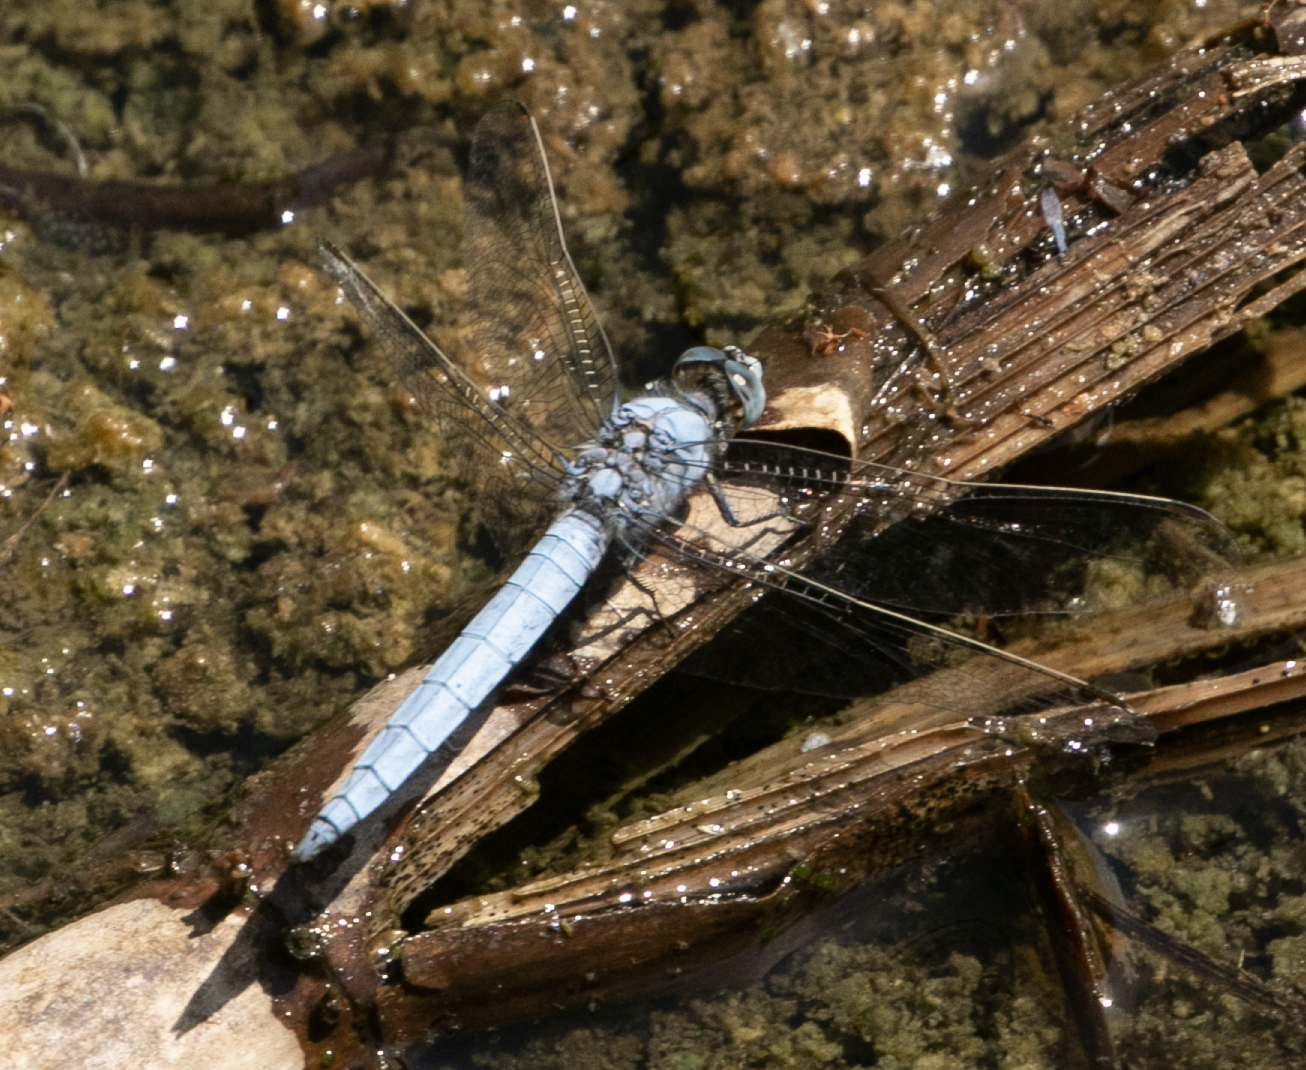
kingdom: Animalia
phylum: Arthropoda
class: Insecta
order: Odonata
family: Libellulidae
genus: Orthetrum
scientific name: Orthetrum brunneum
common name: Southern skimmer
